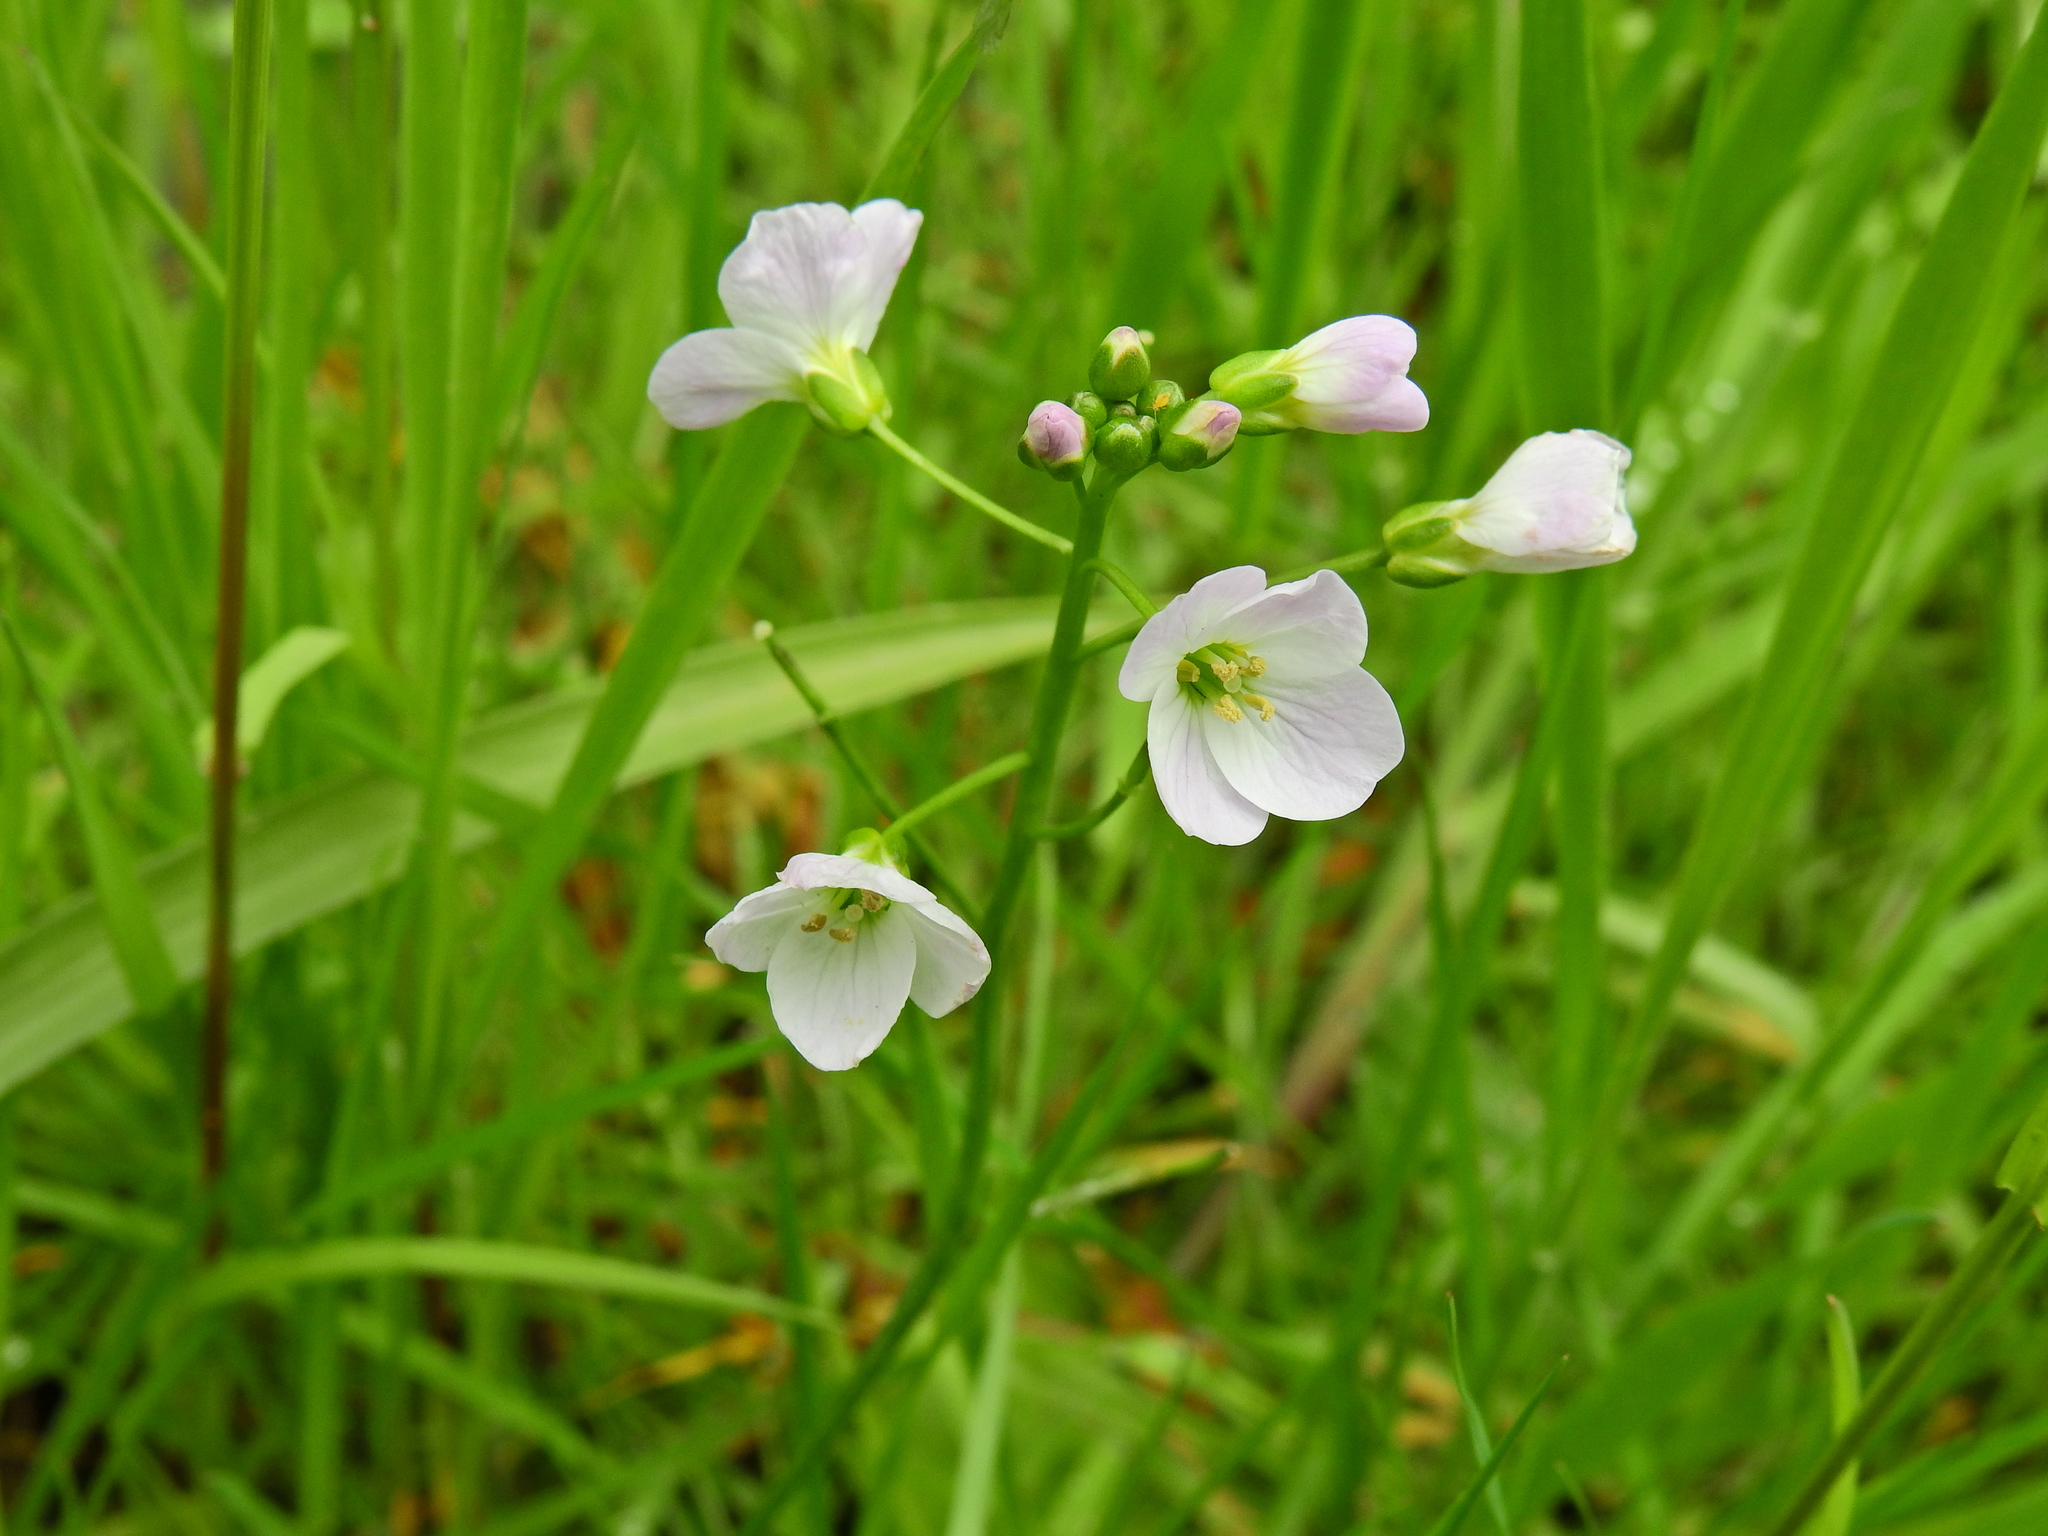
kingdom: Plantae
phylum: Tracheophyta
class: Magnoliopsida
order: Brassicales
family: Brassicaceae
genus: Cardamine
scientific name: Cardamine pratensis
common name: Cuckoo flower
